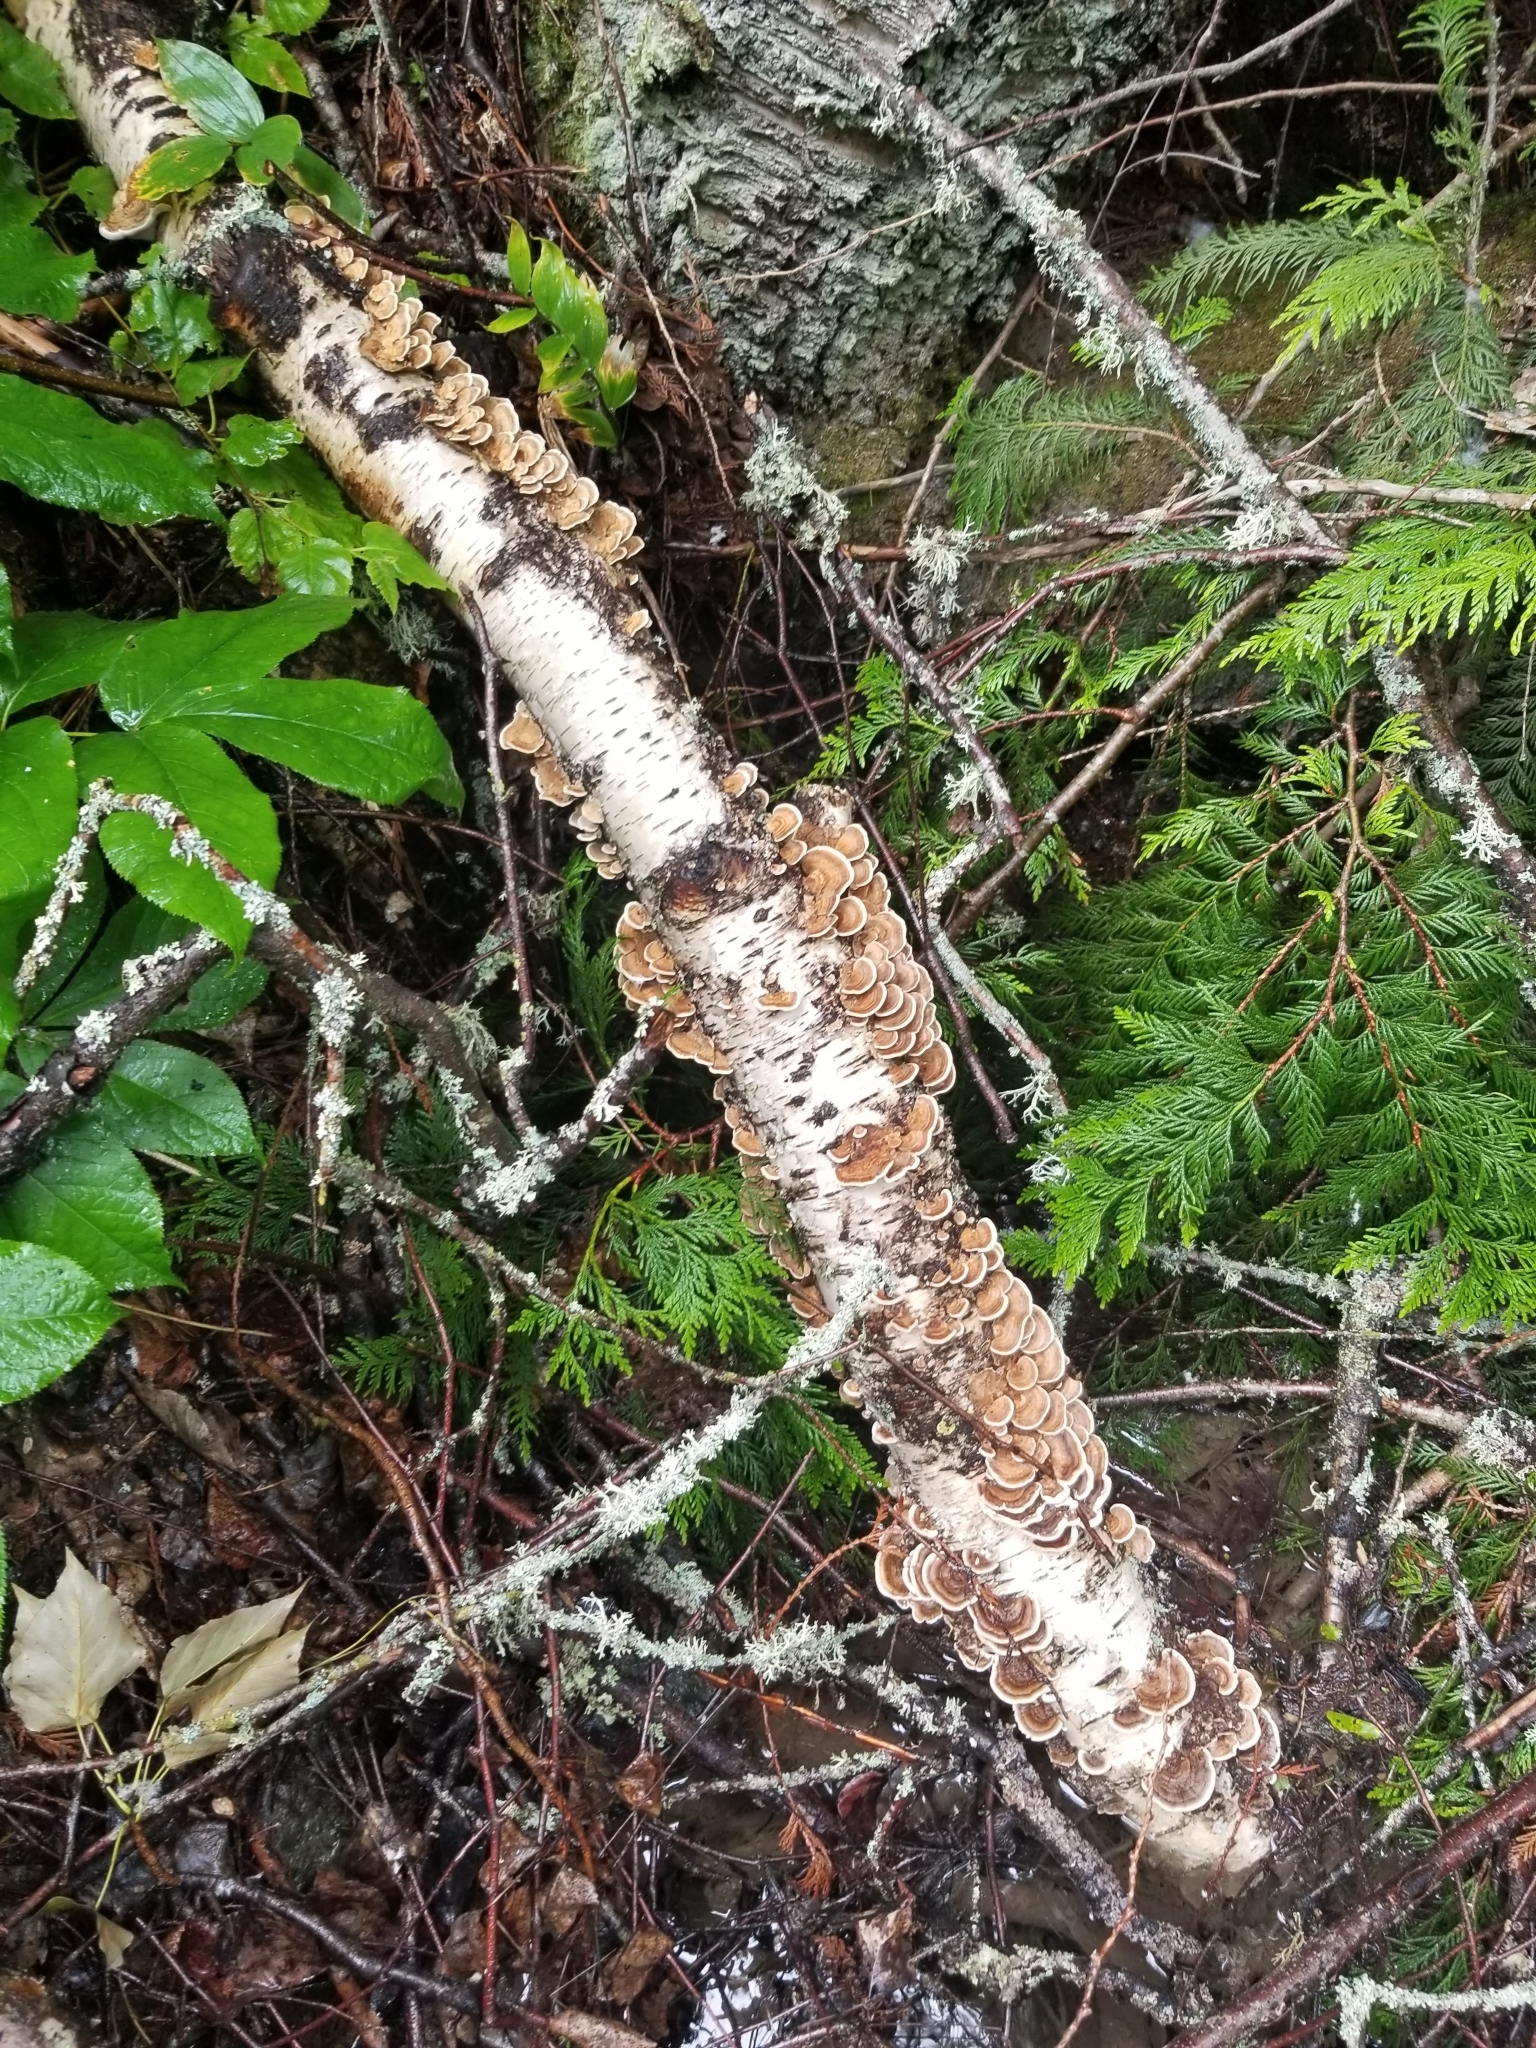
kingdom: Fungi
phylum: Basidiomycota
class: Agaricomycetes
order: Polyporales
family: Polyporaceae
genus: Trametes
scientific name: Trametes versicolor
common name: Turkeytail
